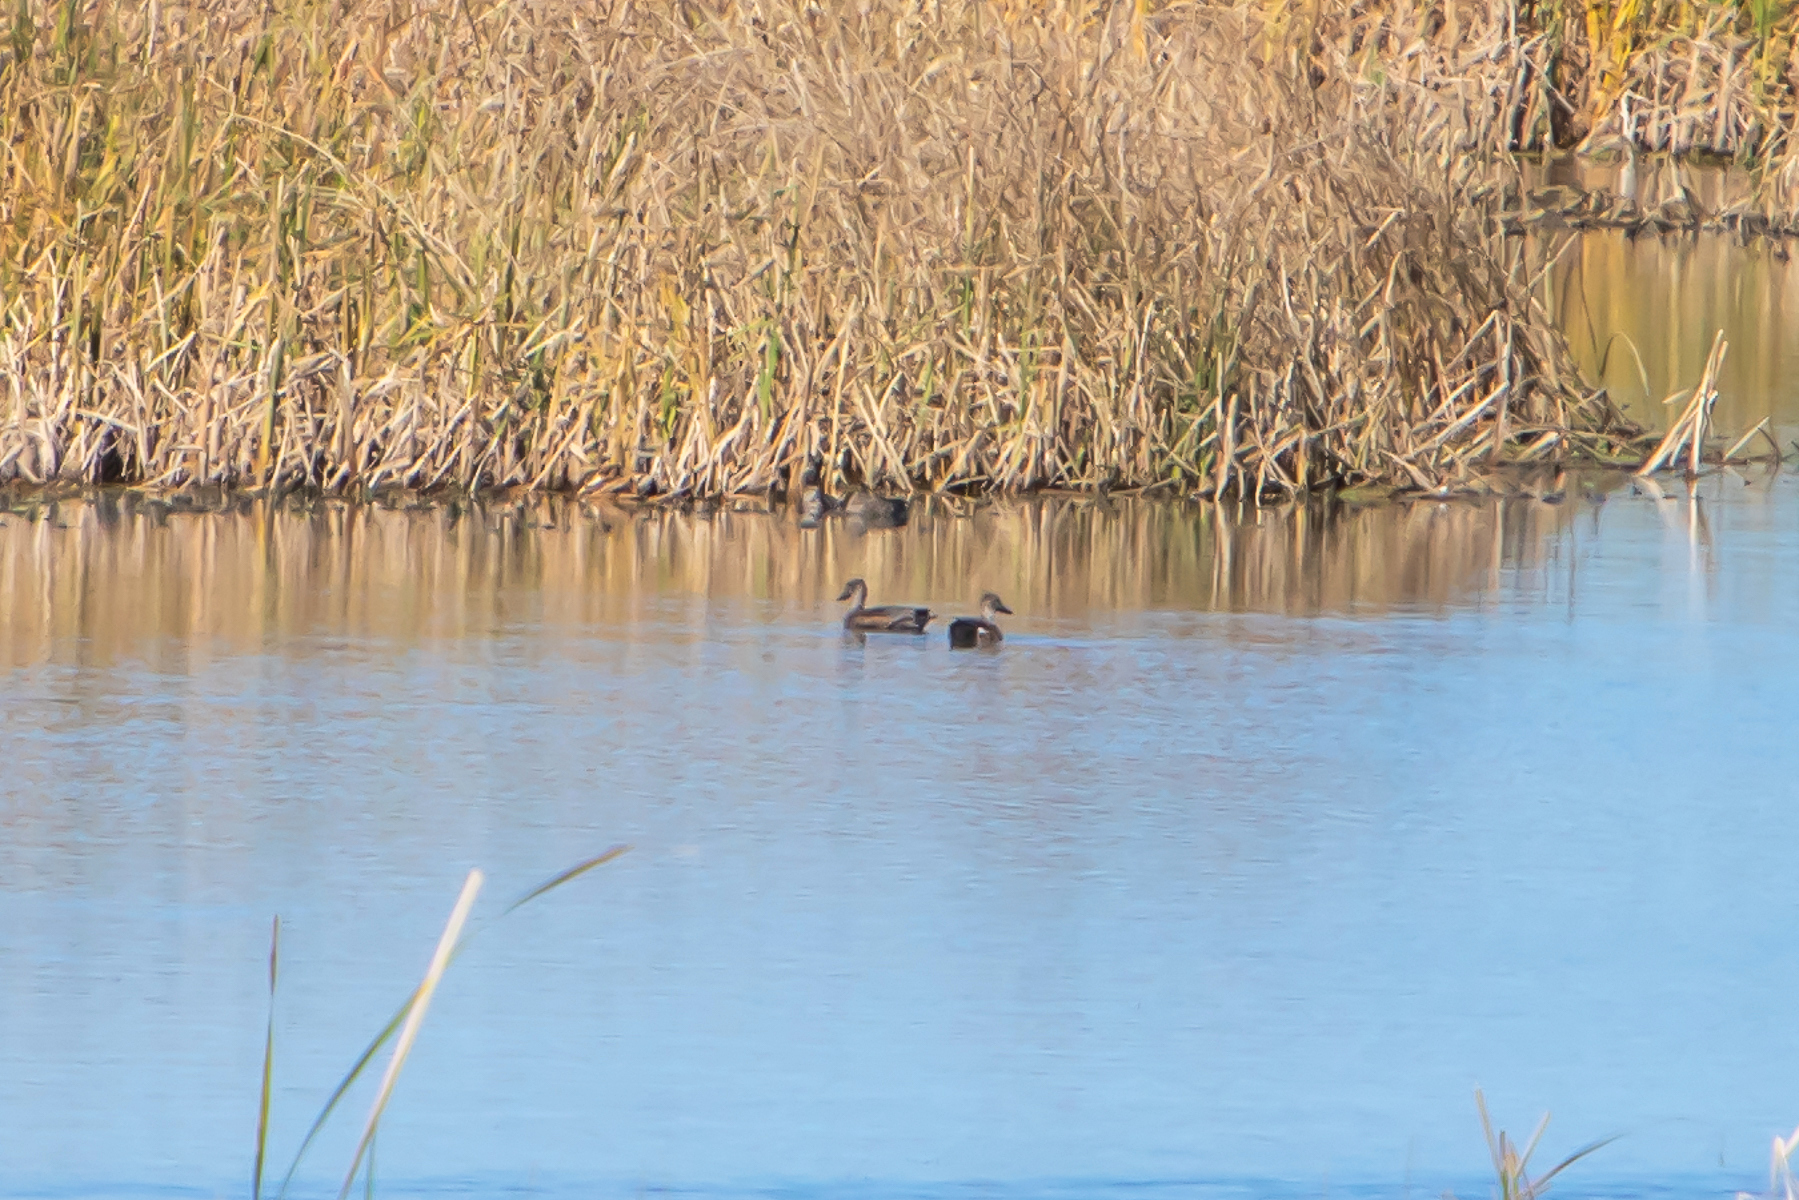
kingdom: Animalia
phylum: Chordata
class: Aves
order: Anseriformes
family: Anatidae
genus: Mareca
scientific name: Mareca strepera
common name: Gadwall
